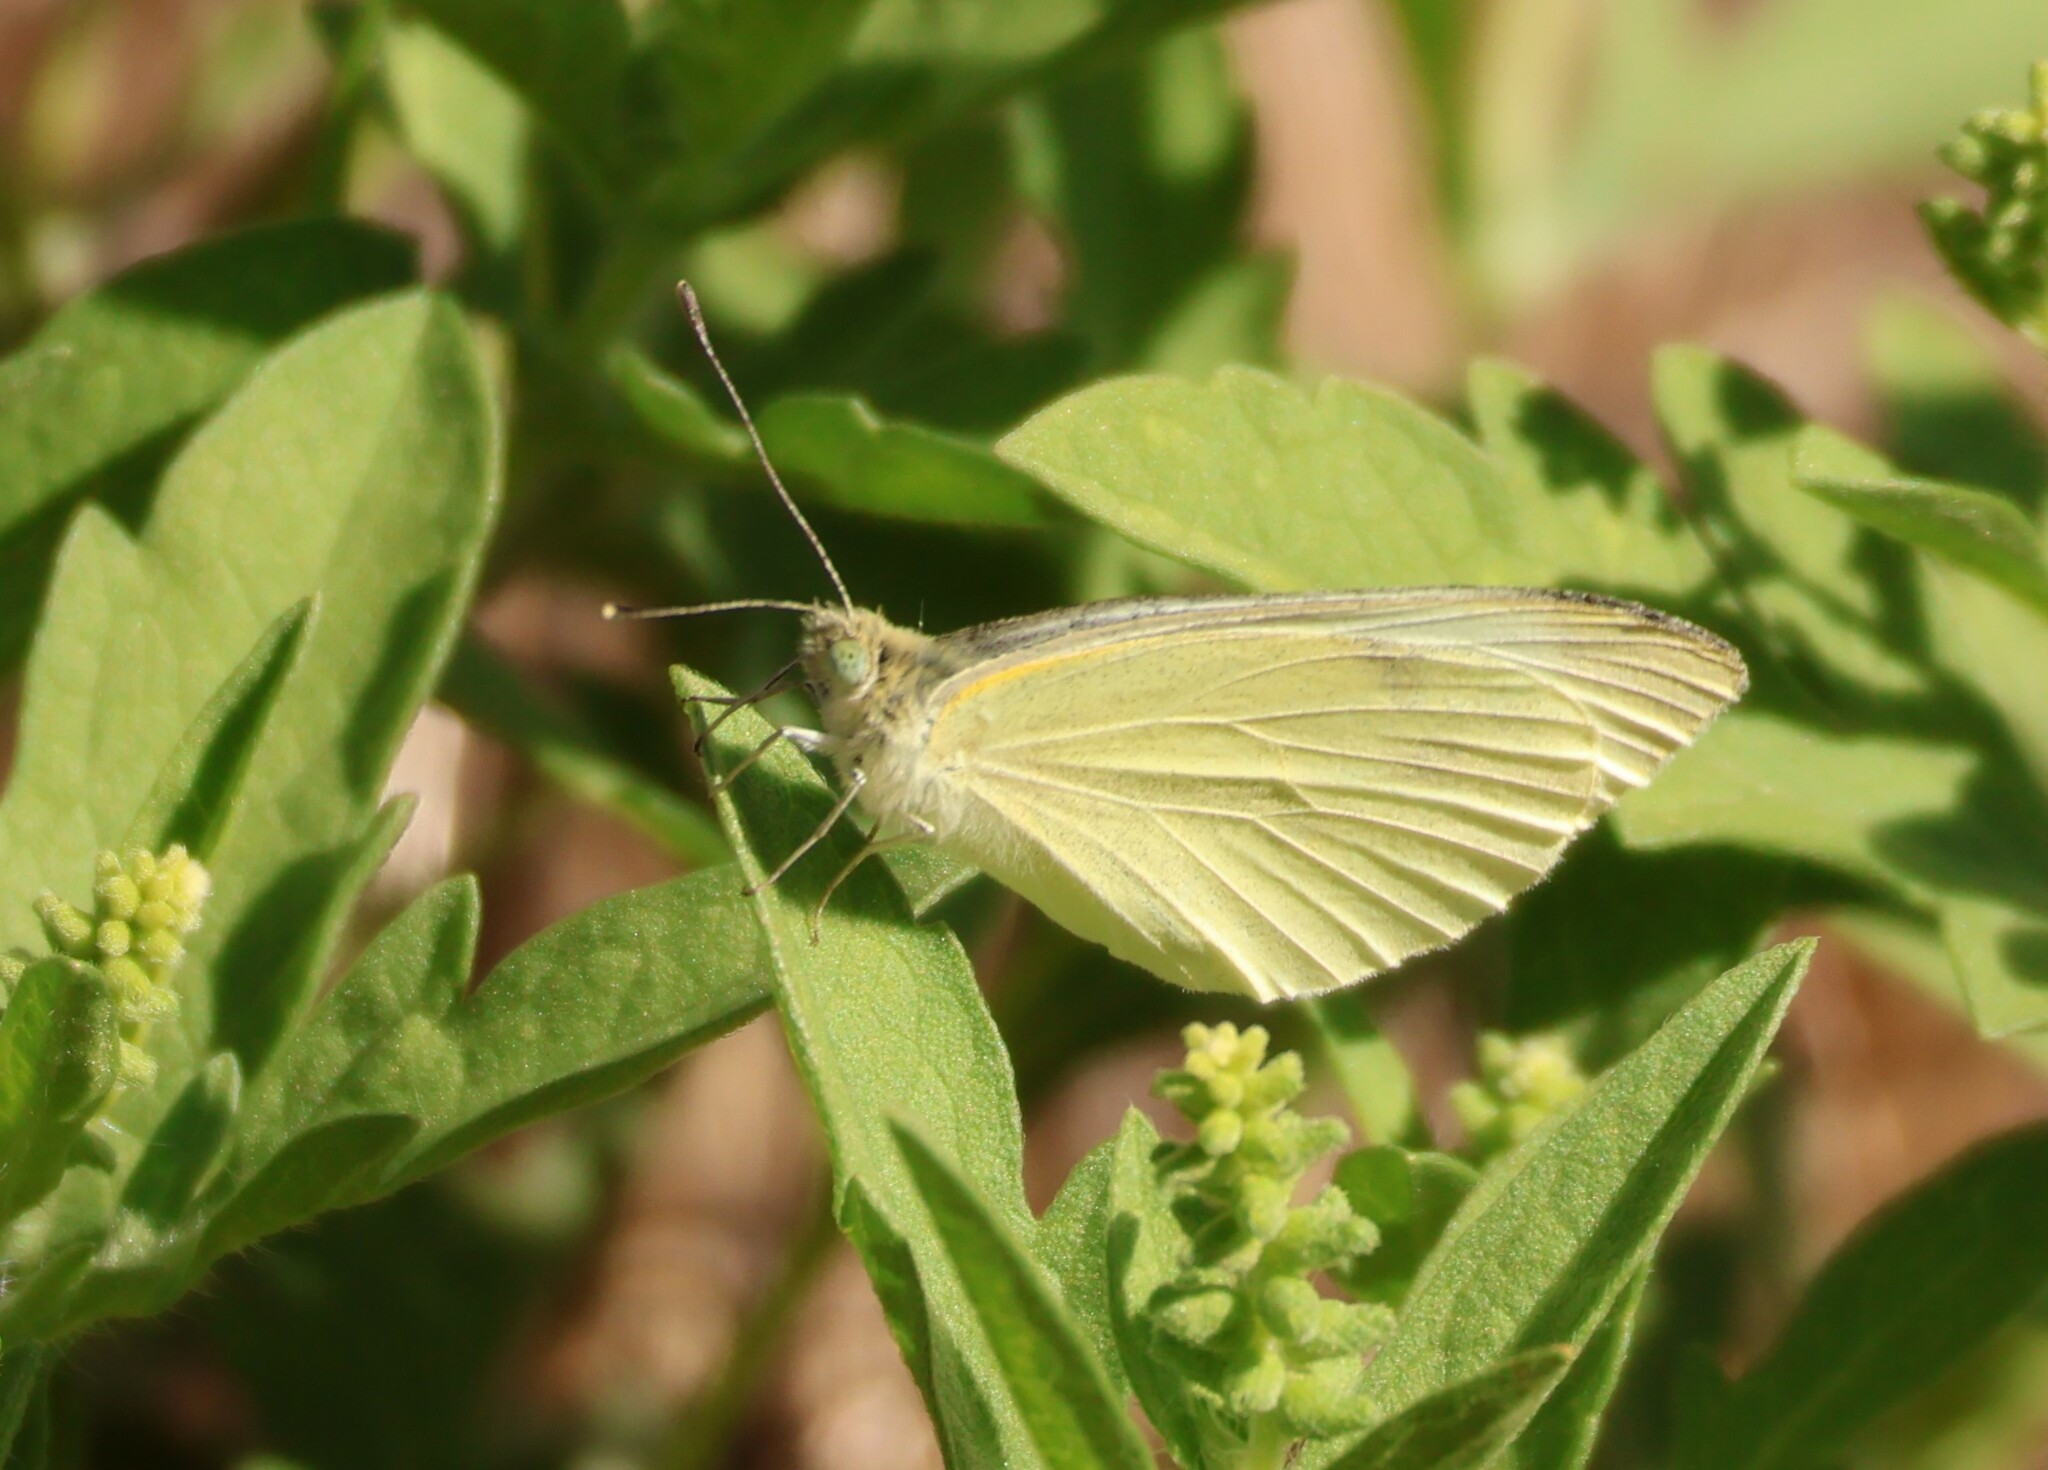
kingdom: Animalia
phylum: Arthropoda
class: Insecta
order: Lepidoptera
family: Pieridae
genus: Pieris
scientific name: Pieris rapae
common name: Small white
